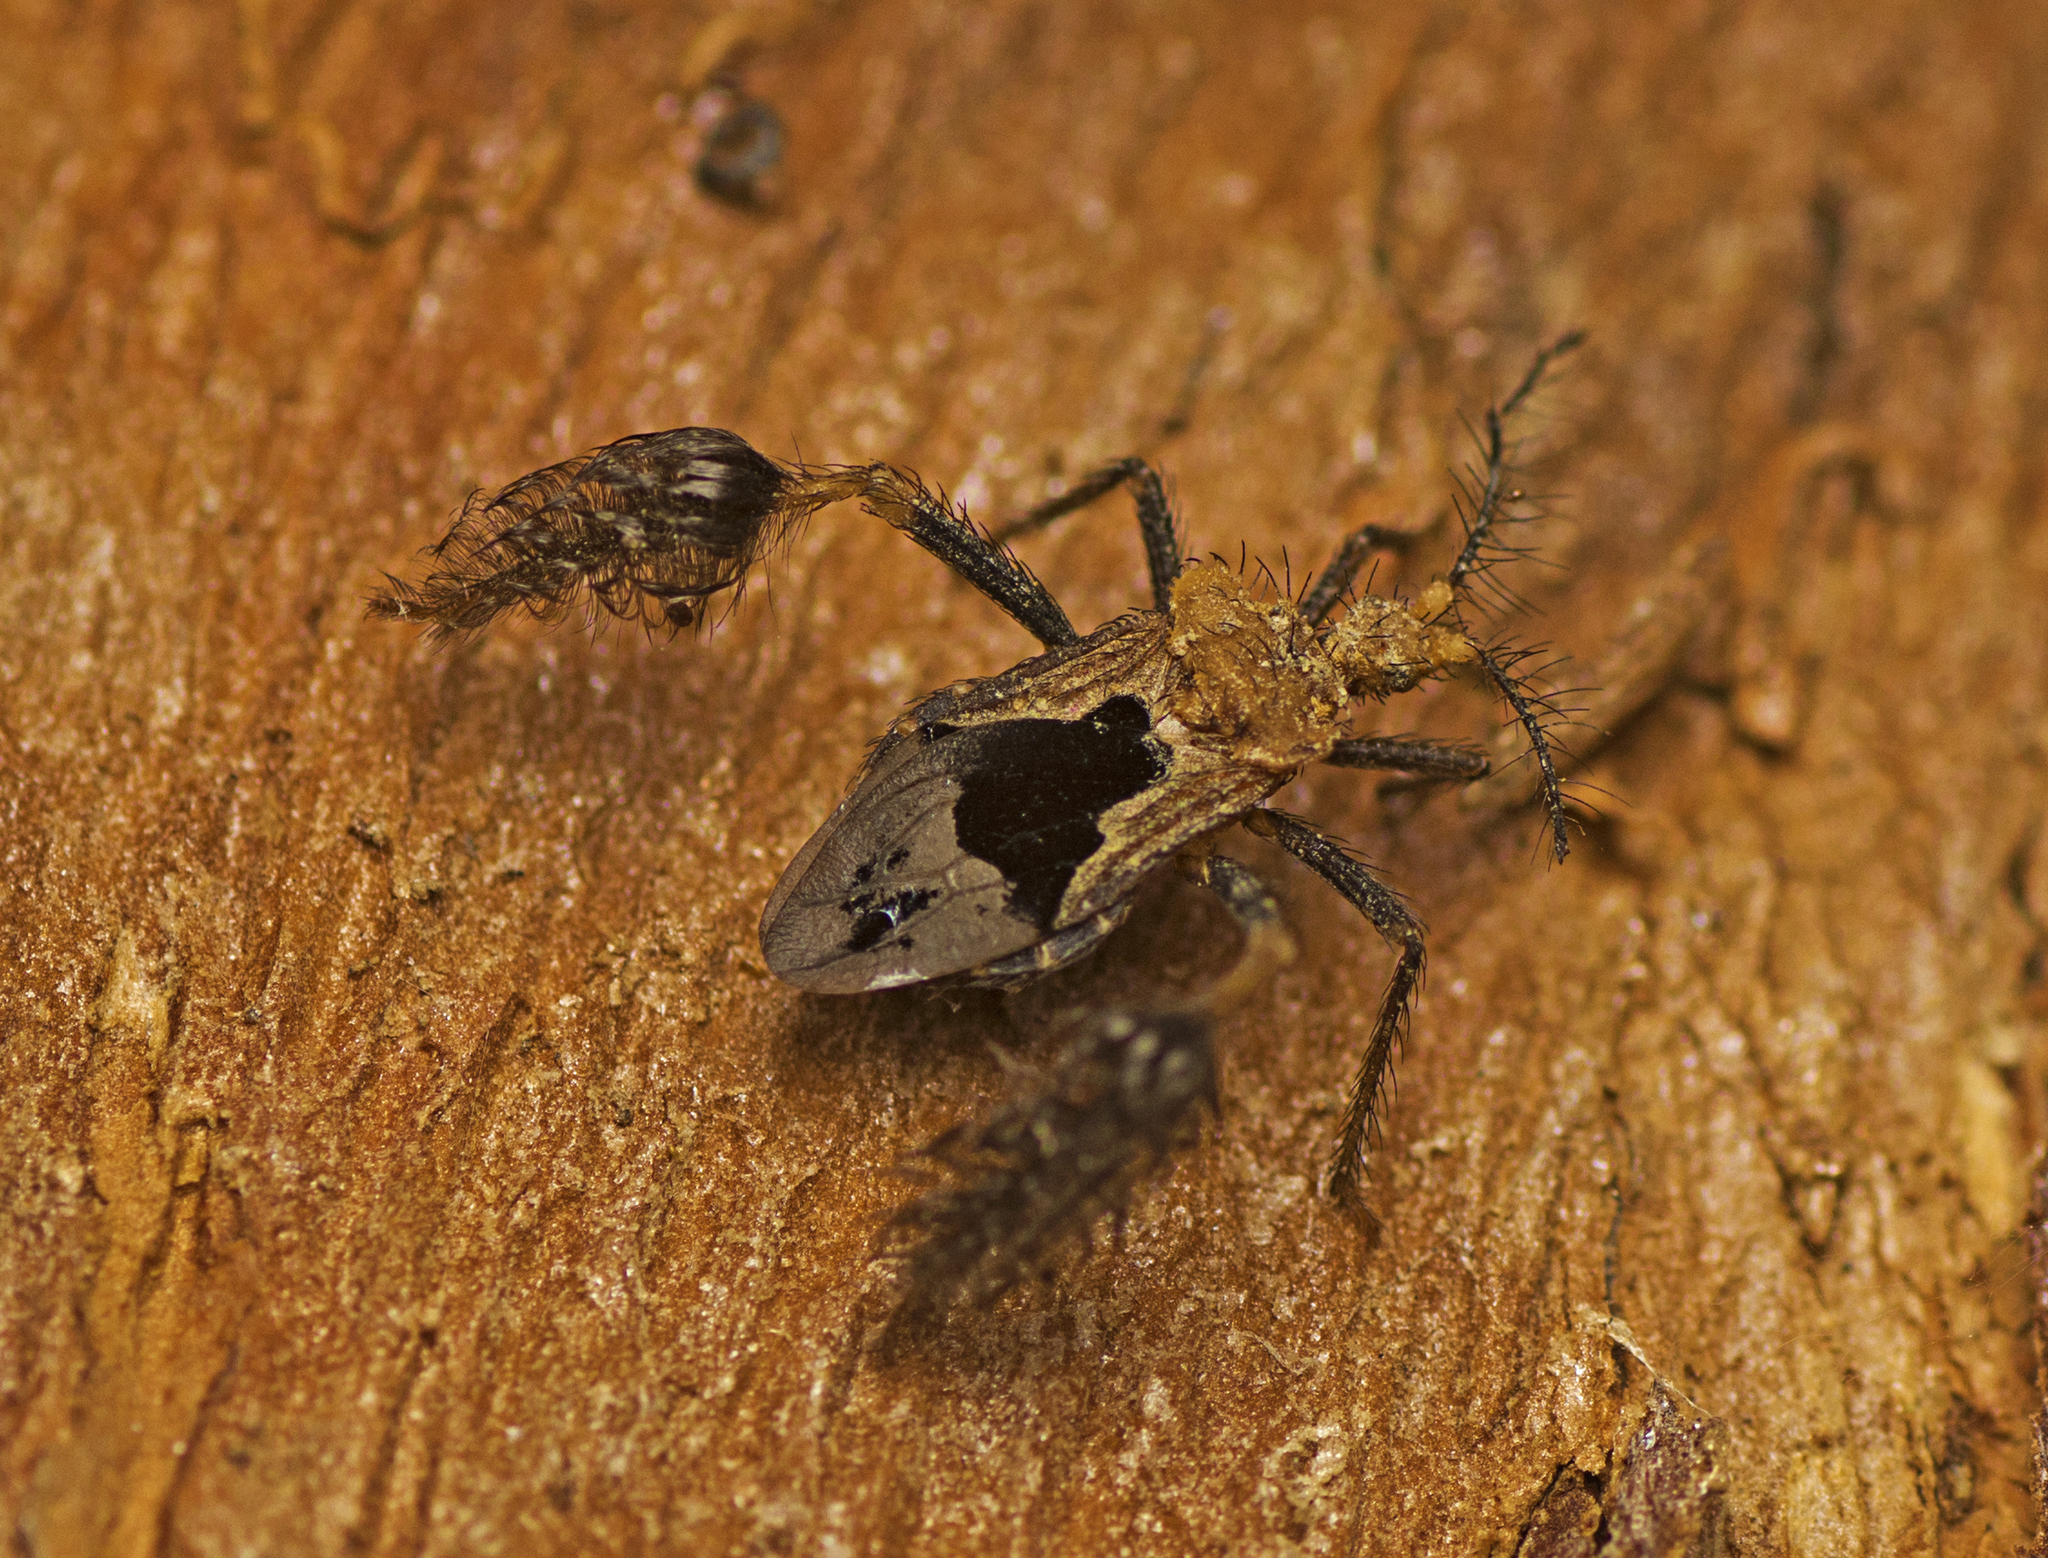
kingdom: Animalia
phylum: Arthropoda
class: Insecta
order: Hemiptera
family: Reduviidae
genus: Ptilocnemus
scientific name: Ptilocnemus lemur
